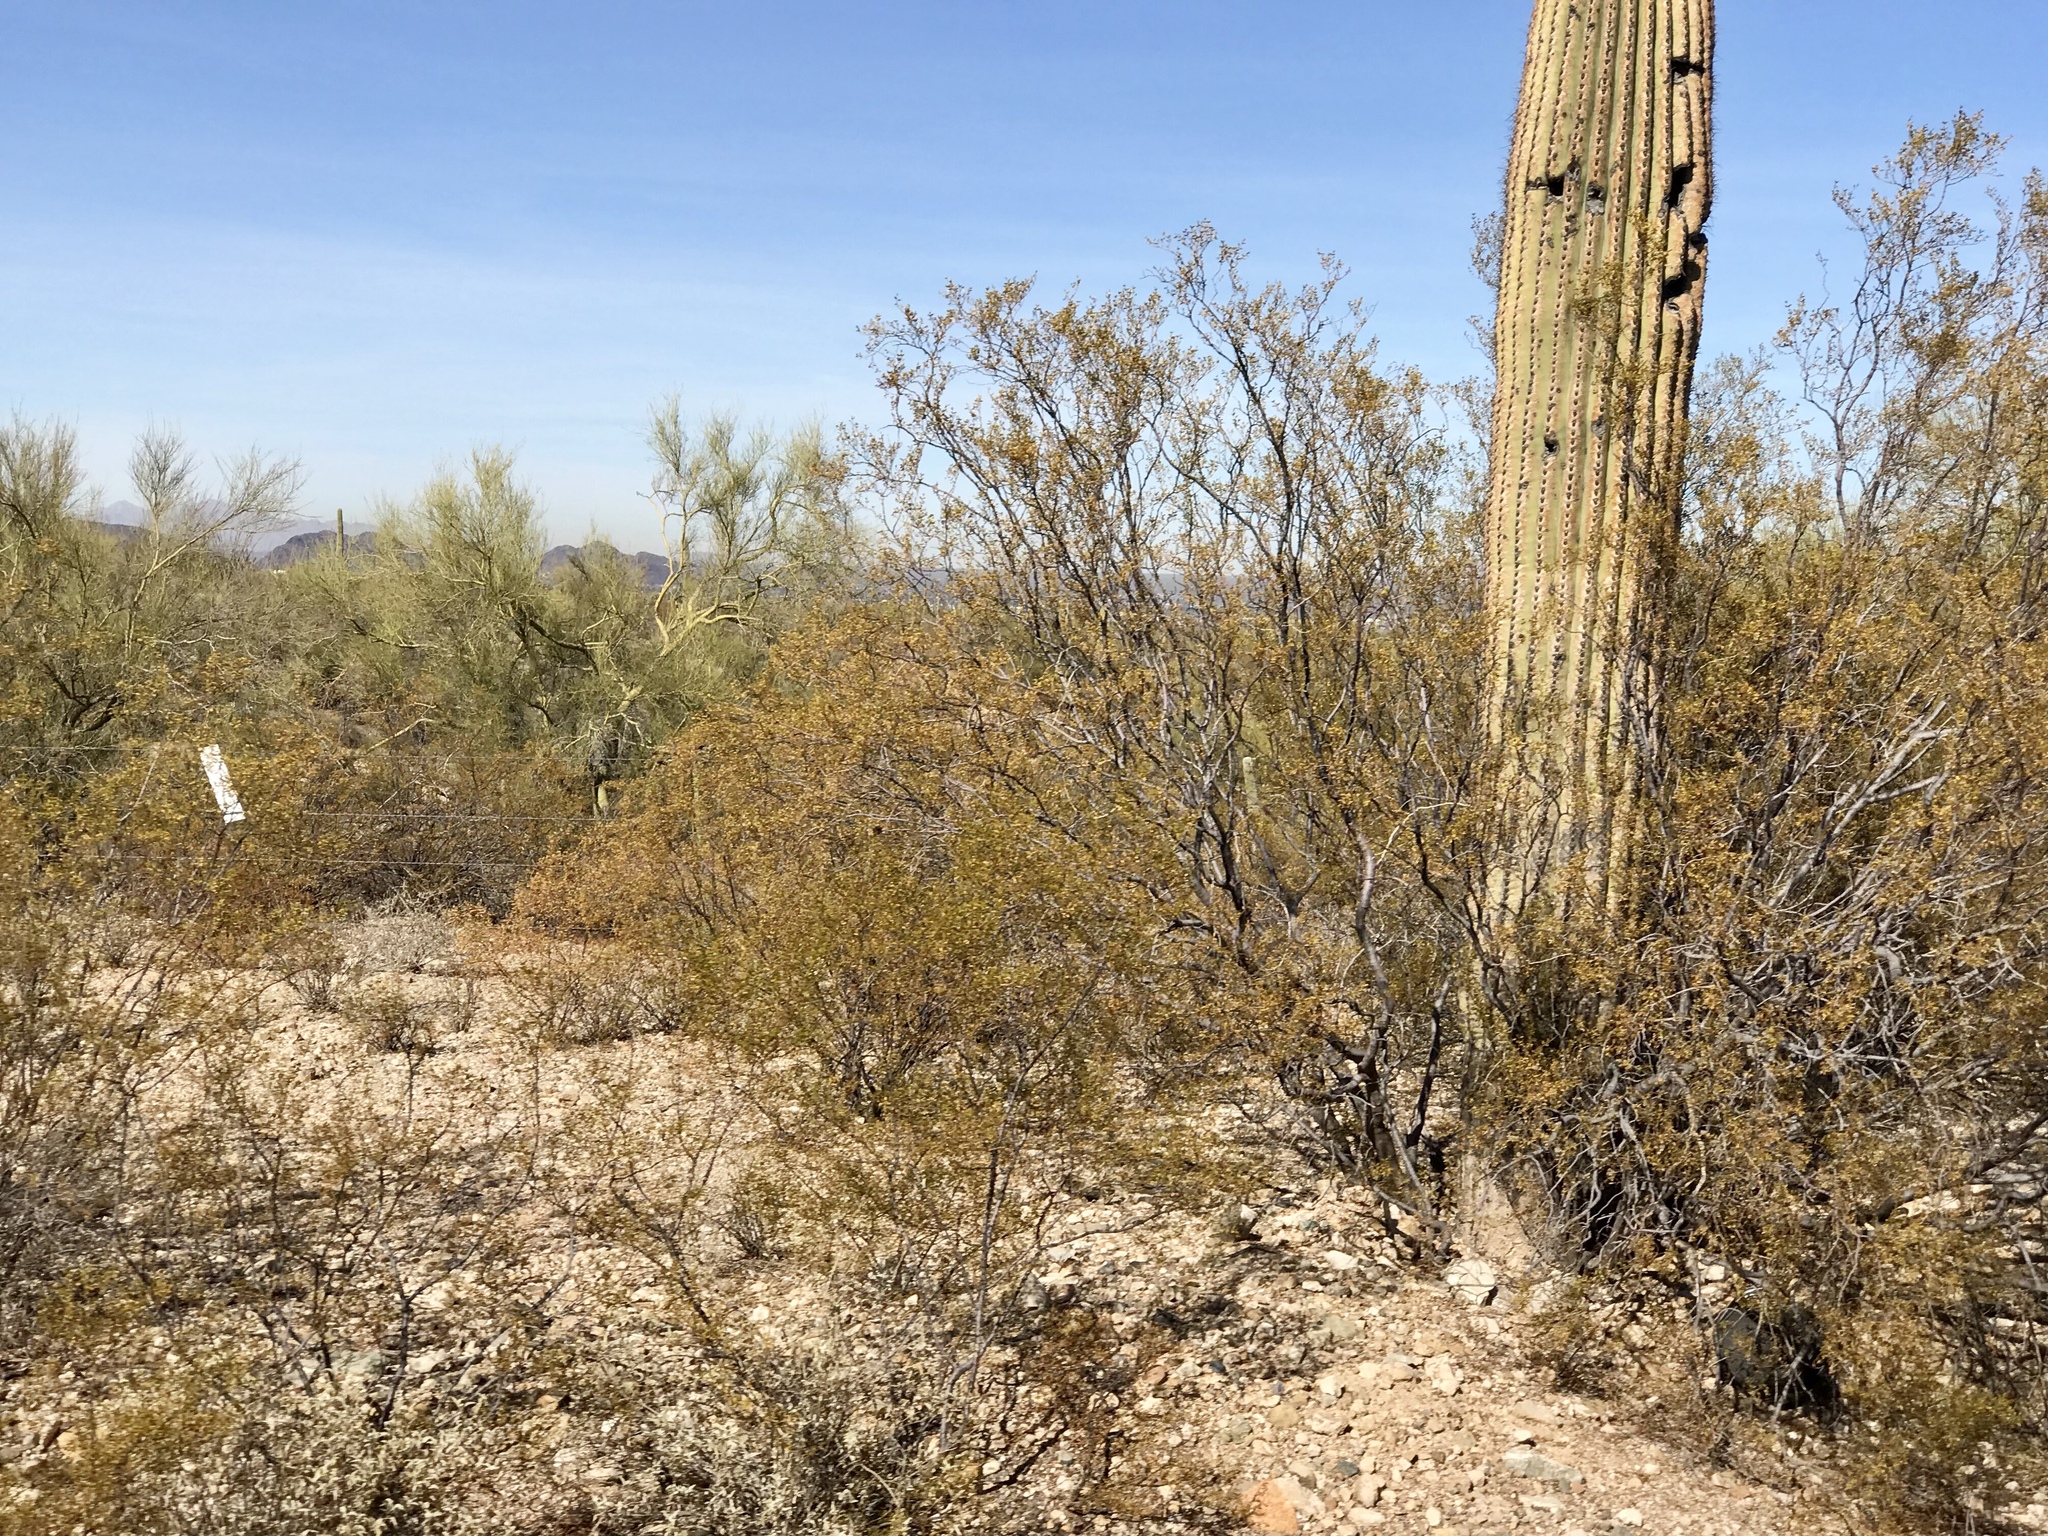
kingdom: Plantae
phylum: Tracheophyta
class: Magnoliopsida
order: Zygophyllales
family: Zygophyllaceae
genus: Larrea
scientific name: Larrea tridentata
